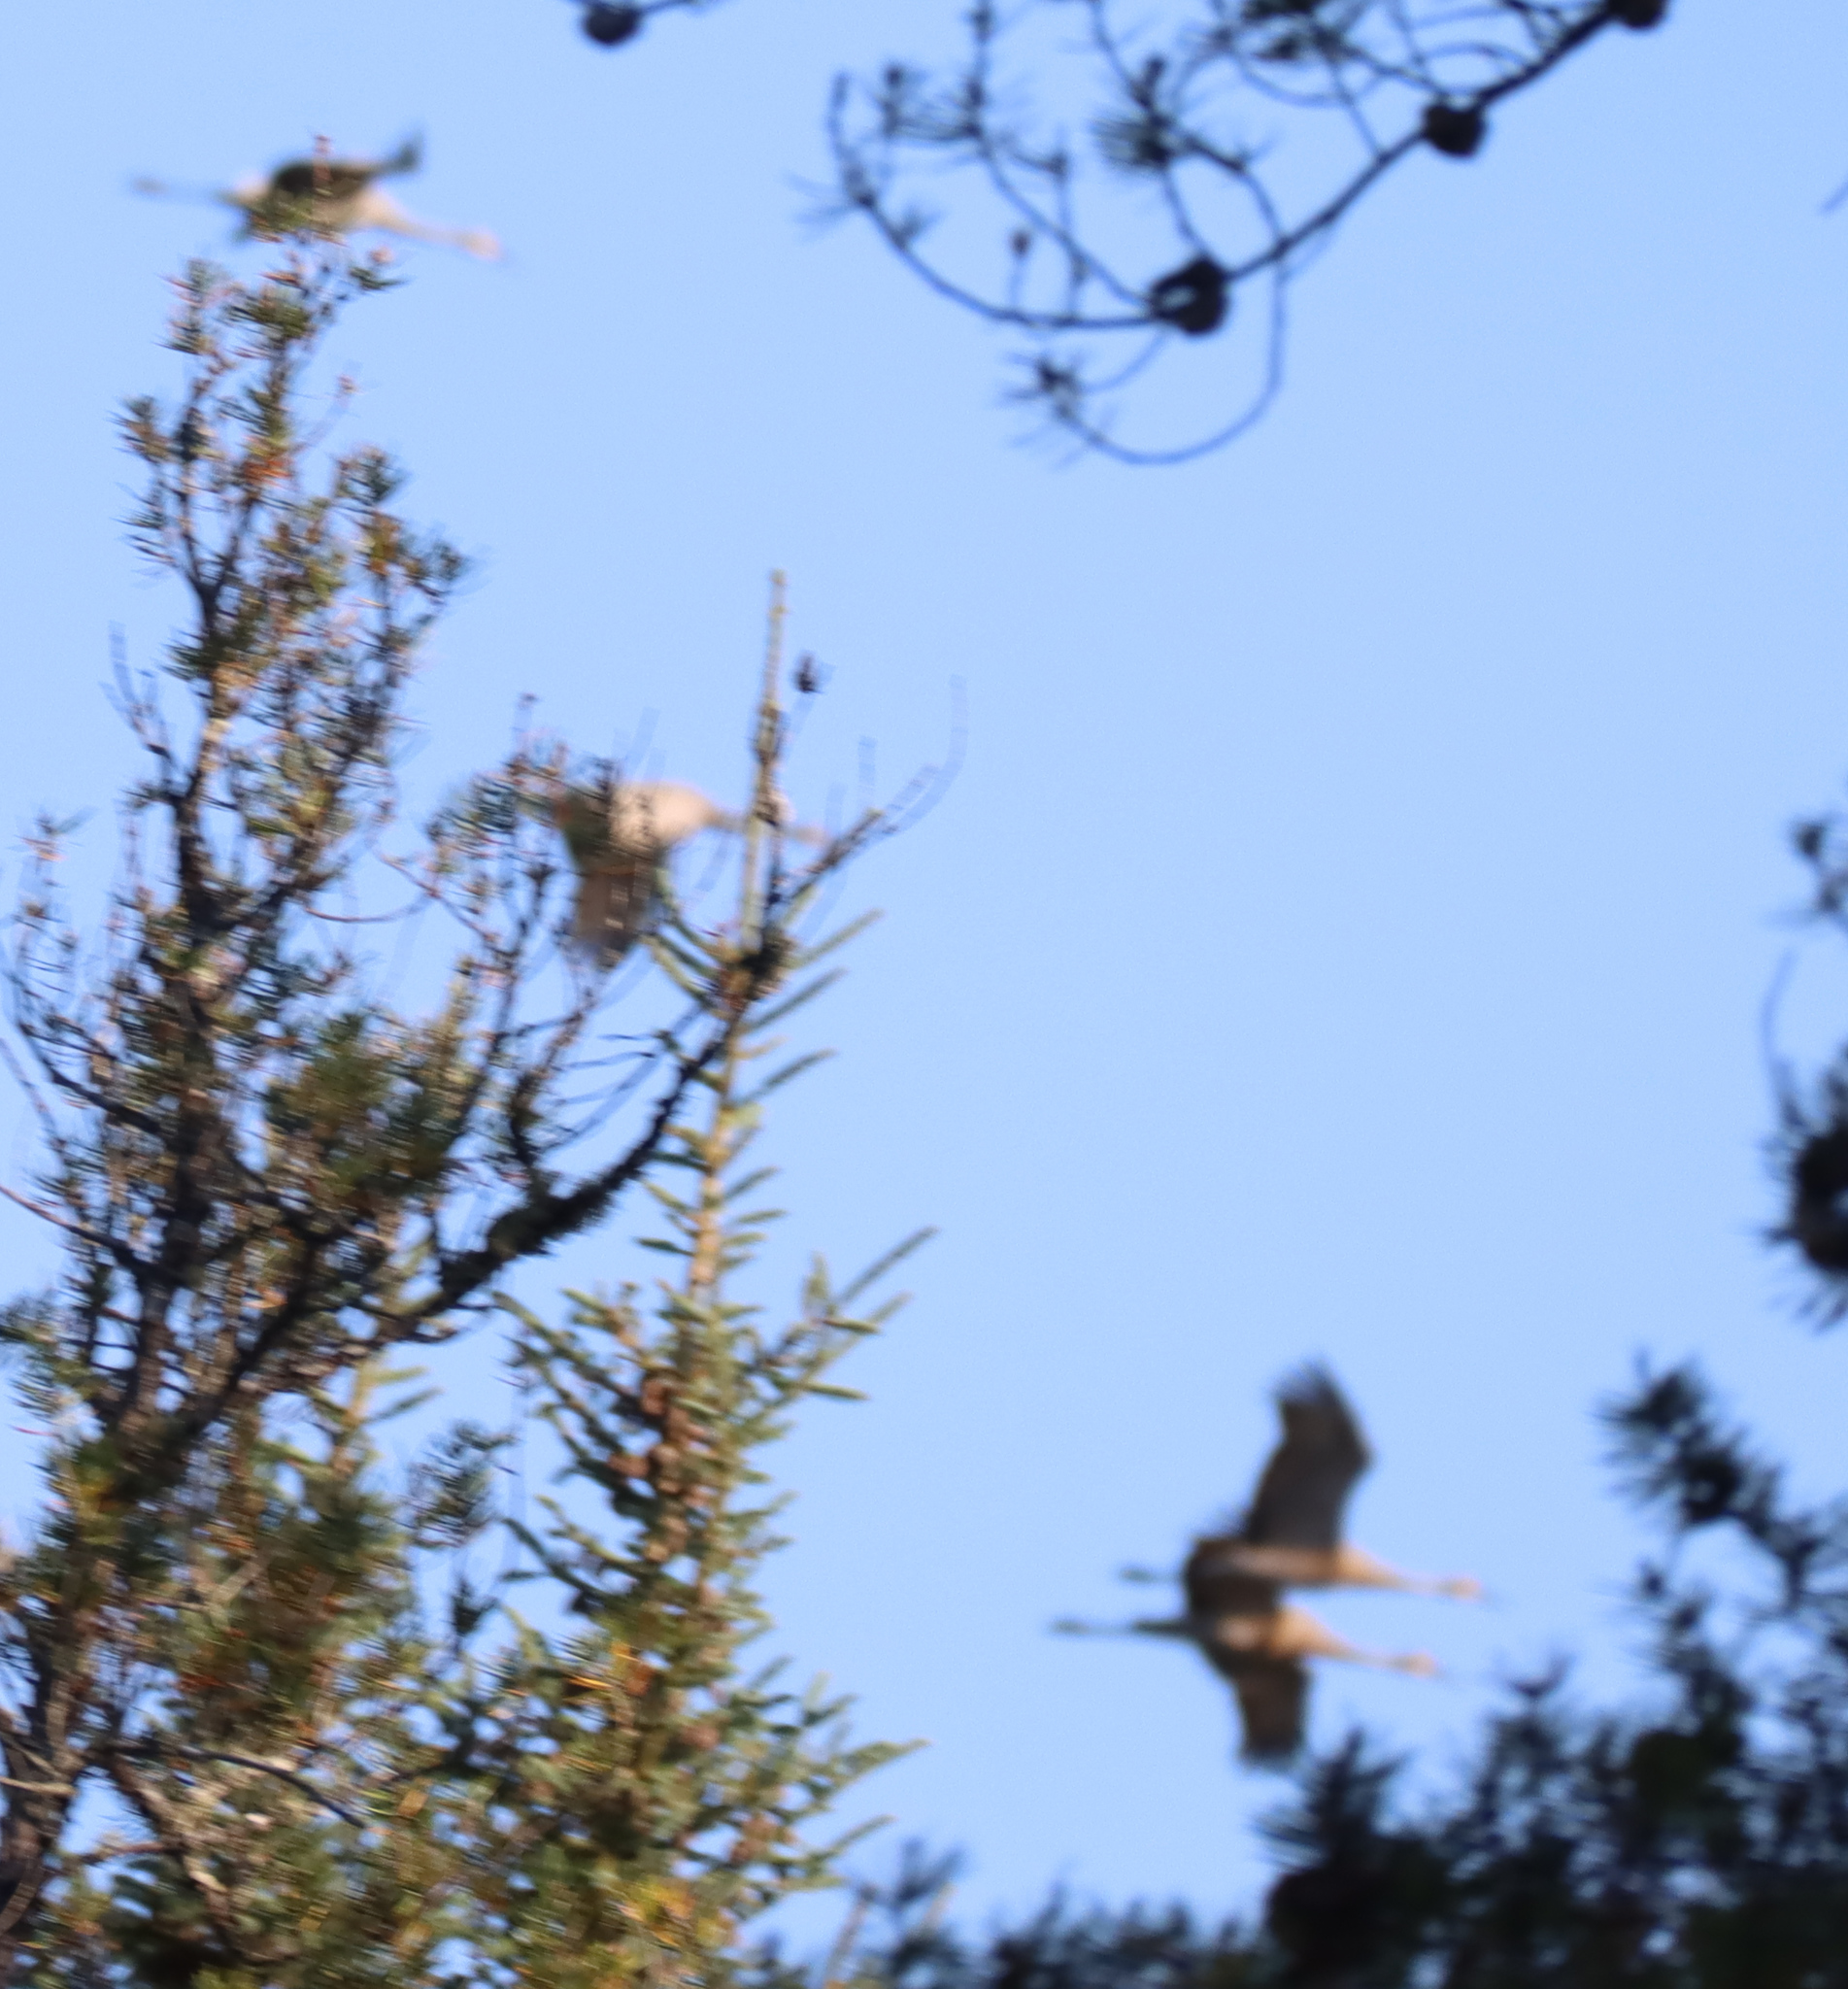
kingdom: Animalia
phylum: Chordata
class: Aves
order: Gruiformes
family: Gruidae
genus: Grus
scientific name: Grus canadensis
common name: Sandhill crane
